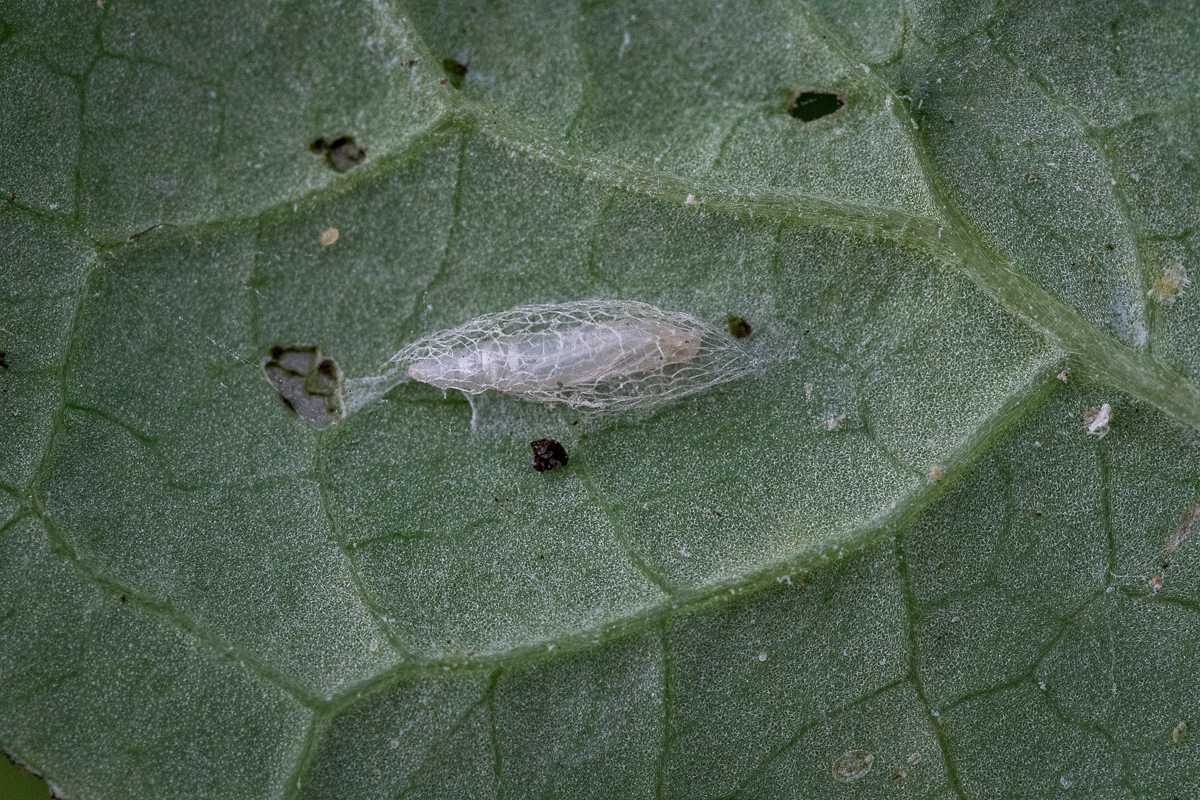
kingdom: Animalia
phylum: Arthropoda
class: Insecta
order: Lepidoptera
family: Plutellidae
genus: Plutella
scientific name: Plutella xylostella
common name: Diamond-back moth
